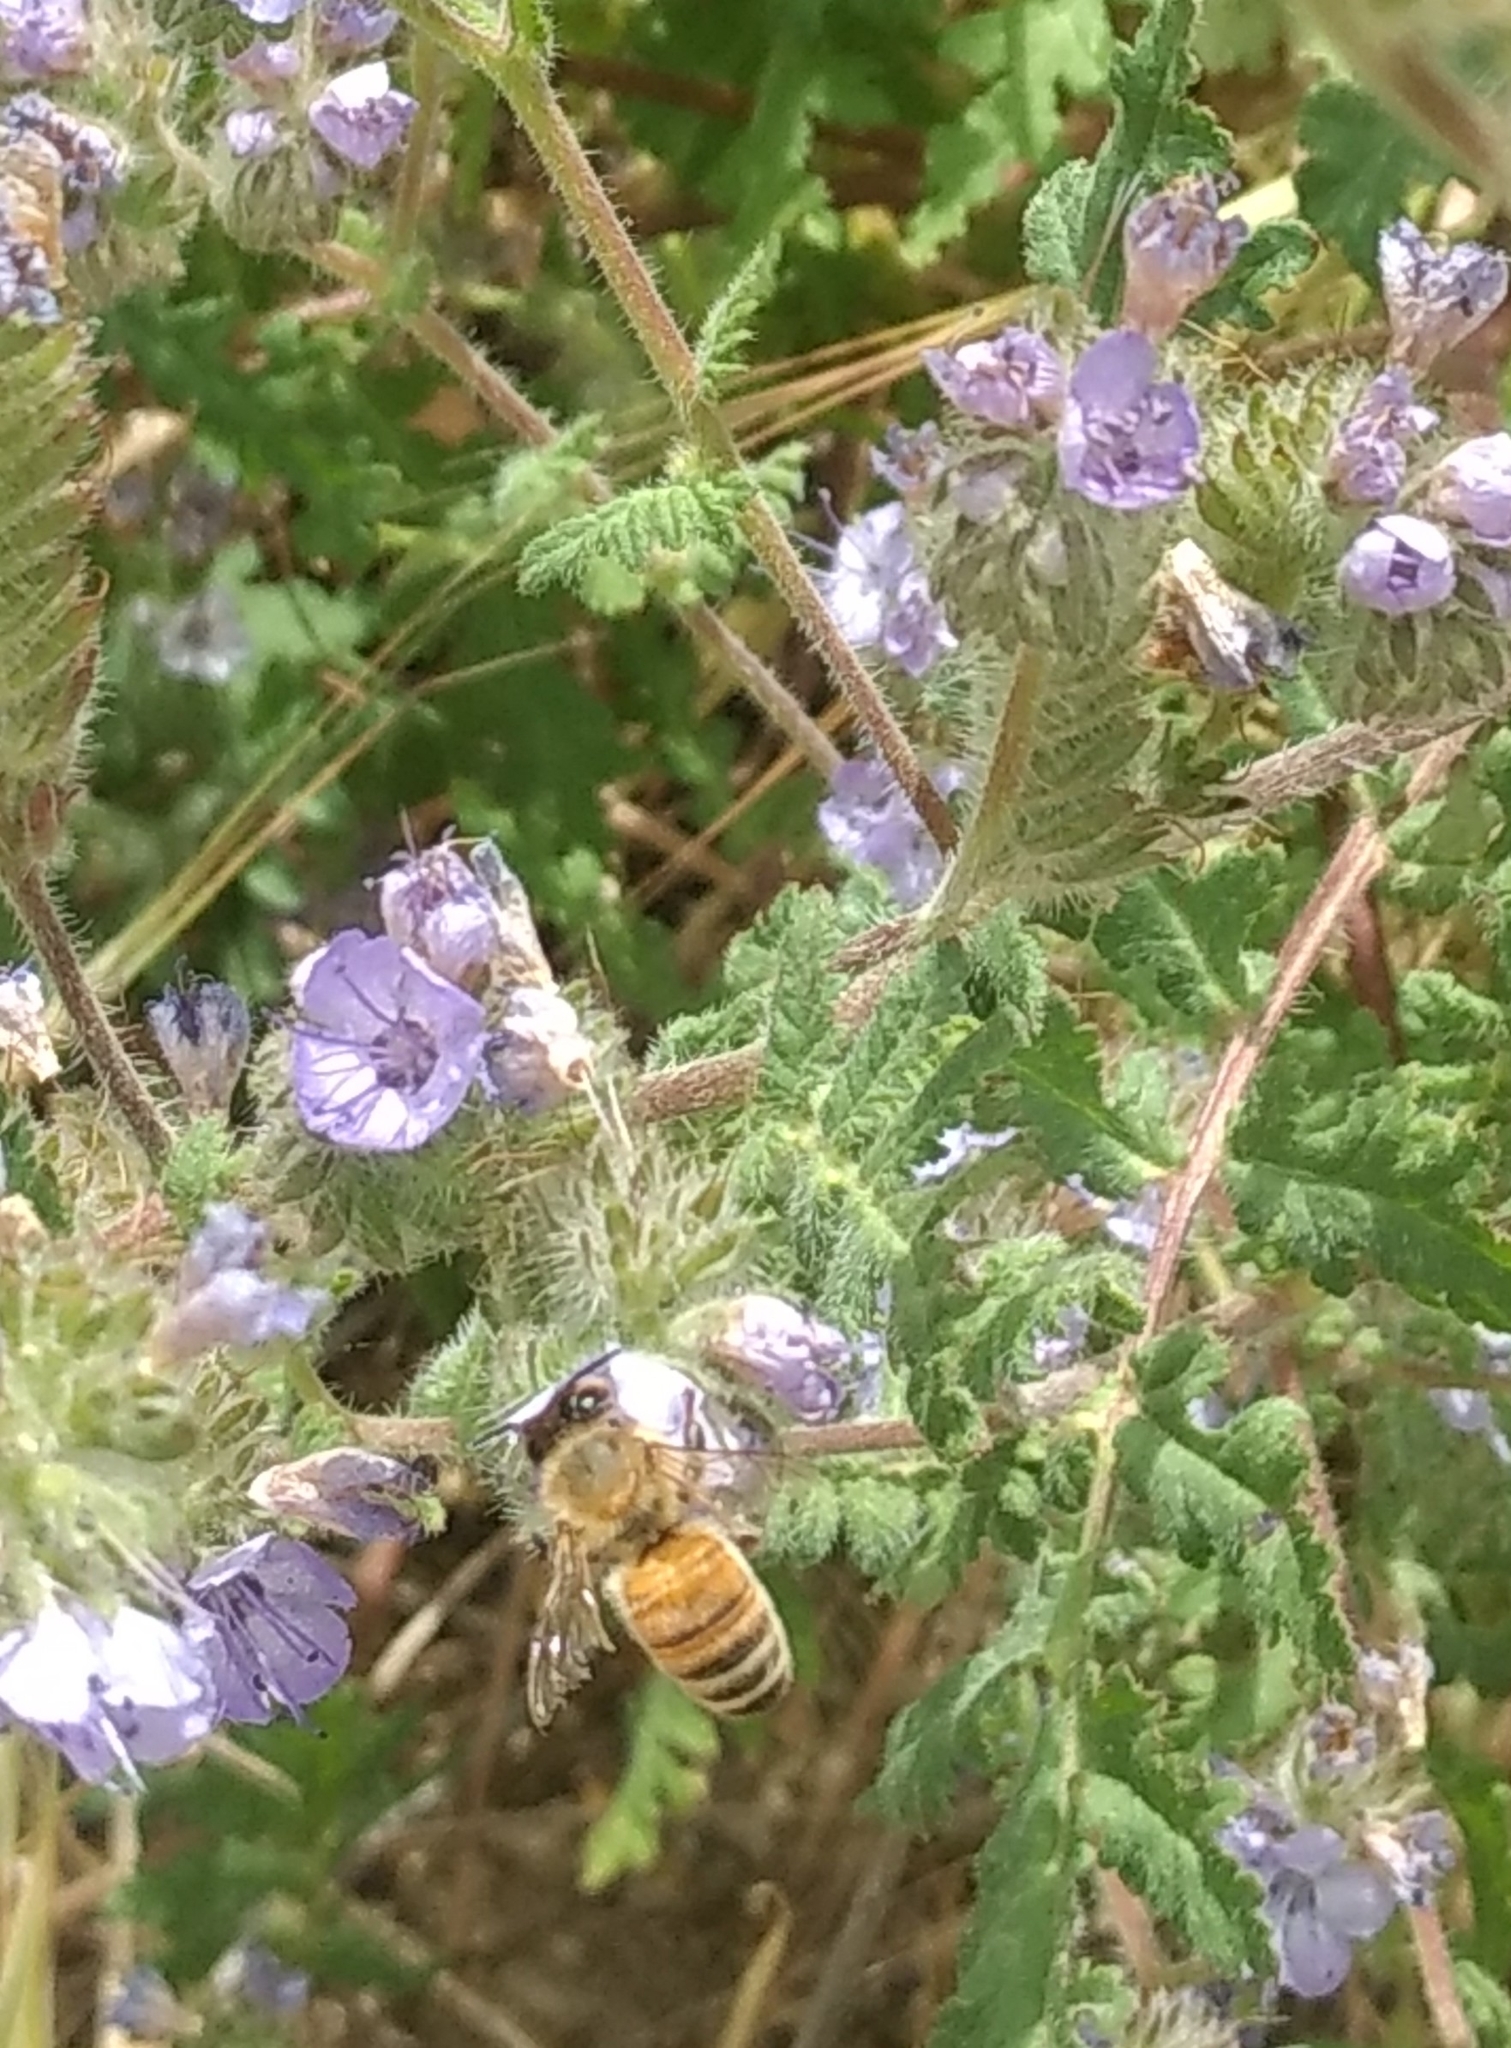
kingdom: Animalia
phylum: Arthropoda
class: Insecta
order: Hymenoptera
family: Apidae
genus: Apis
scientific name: Apis mellifera
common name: Honey bee
